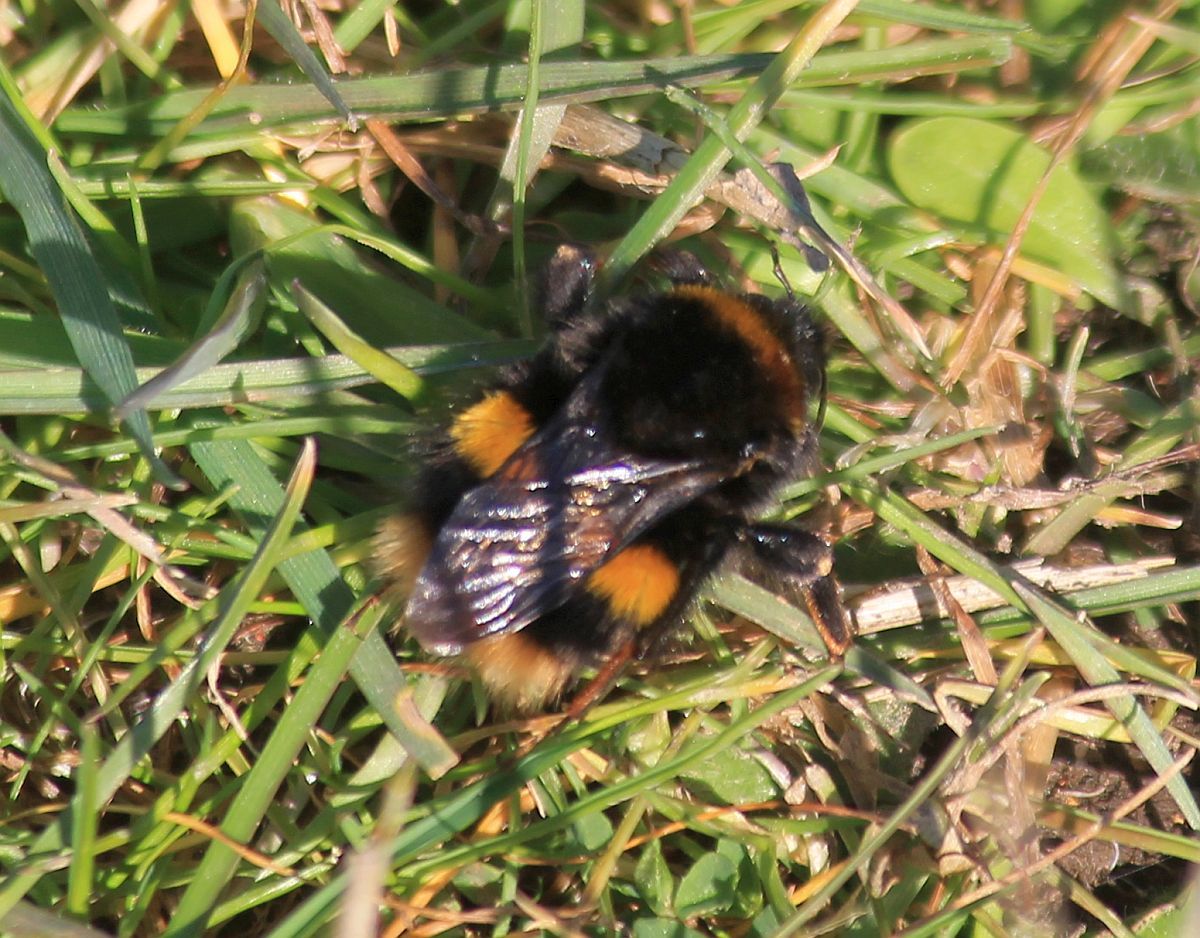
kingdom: Animalia
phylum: Arthropoda
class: Insecta
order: Hymenoptera
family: Apidae
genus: Bombus
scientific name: Bombus terrestris
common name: Buff-tailed bumblebee
